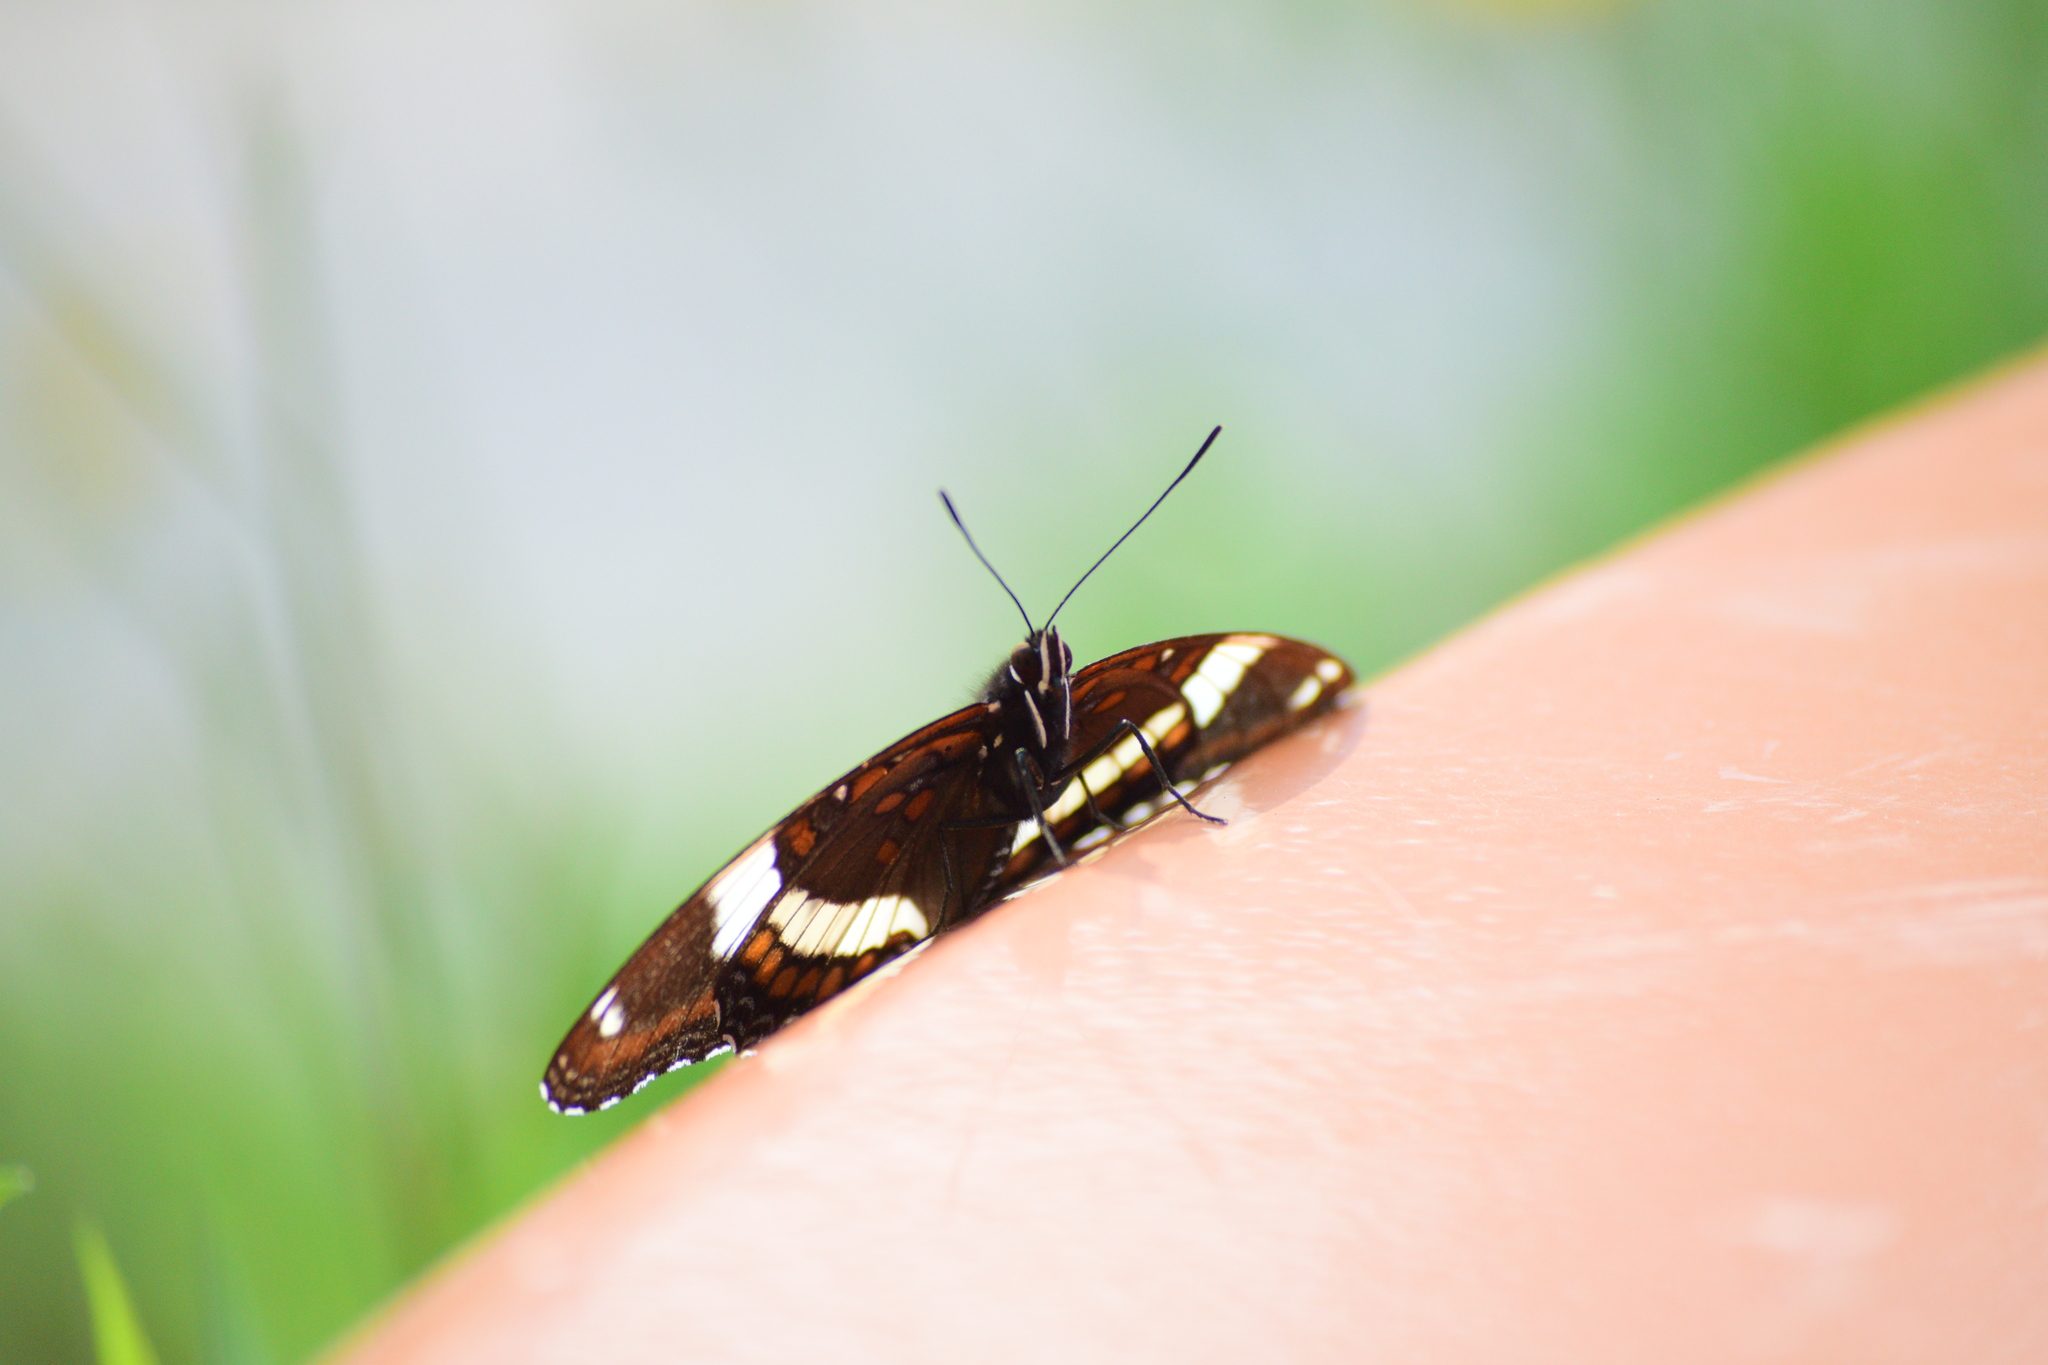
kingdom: Animalia
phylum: Arthropoda
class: Insecta
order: Lepidoptera
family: Nymphalidae
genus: Limenitis
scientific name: Limenitis arthemis
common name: Red-spotted admiral
